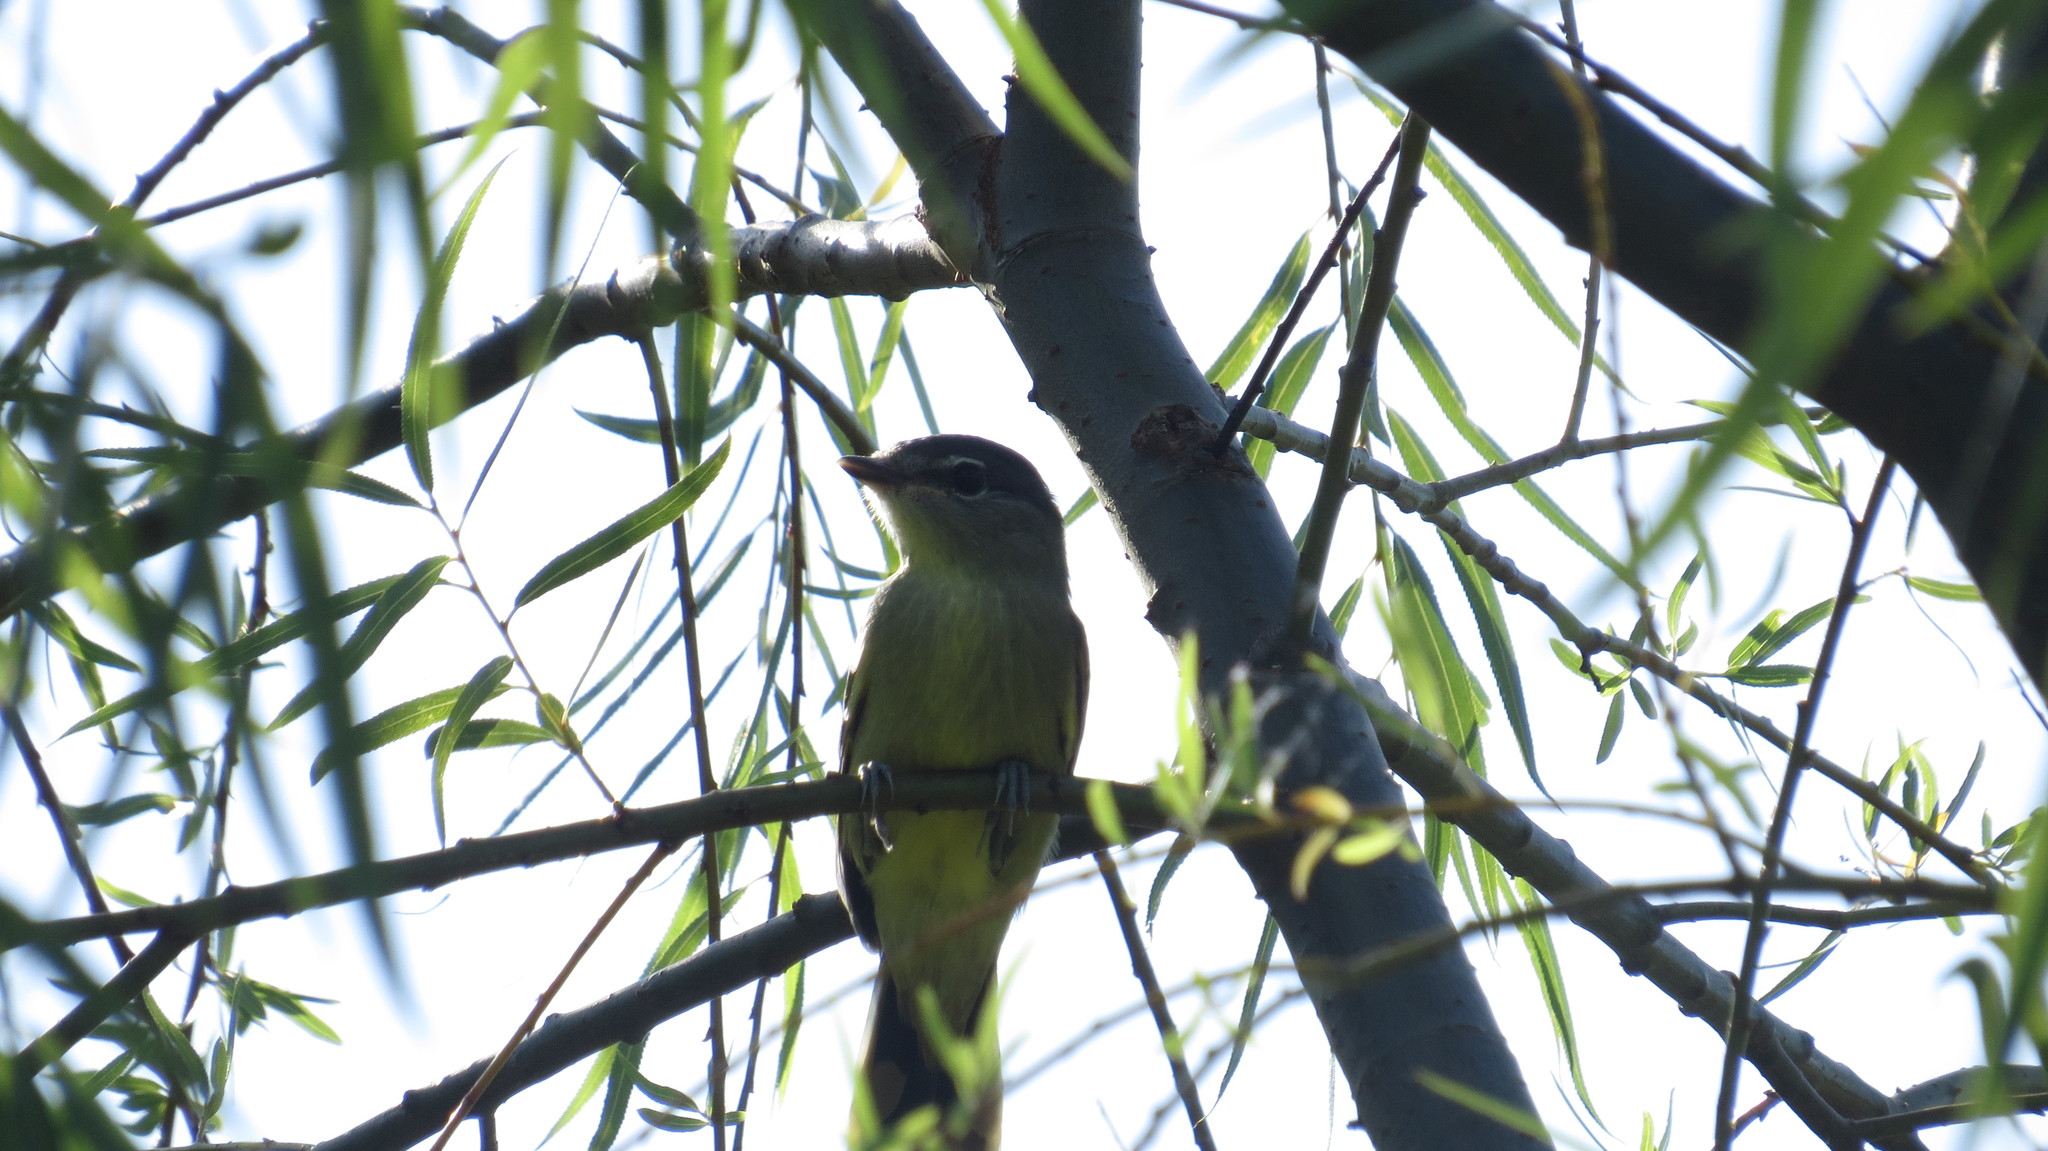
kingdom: Animalia
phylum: Chordata
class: Aves
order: Passeriformes
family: Cotingidae
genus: Pachyramphus
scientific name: Pachyramphus polychopterus
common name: White-winged becard
